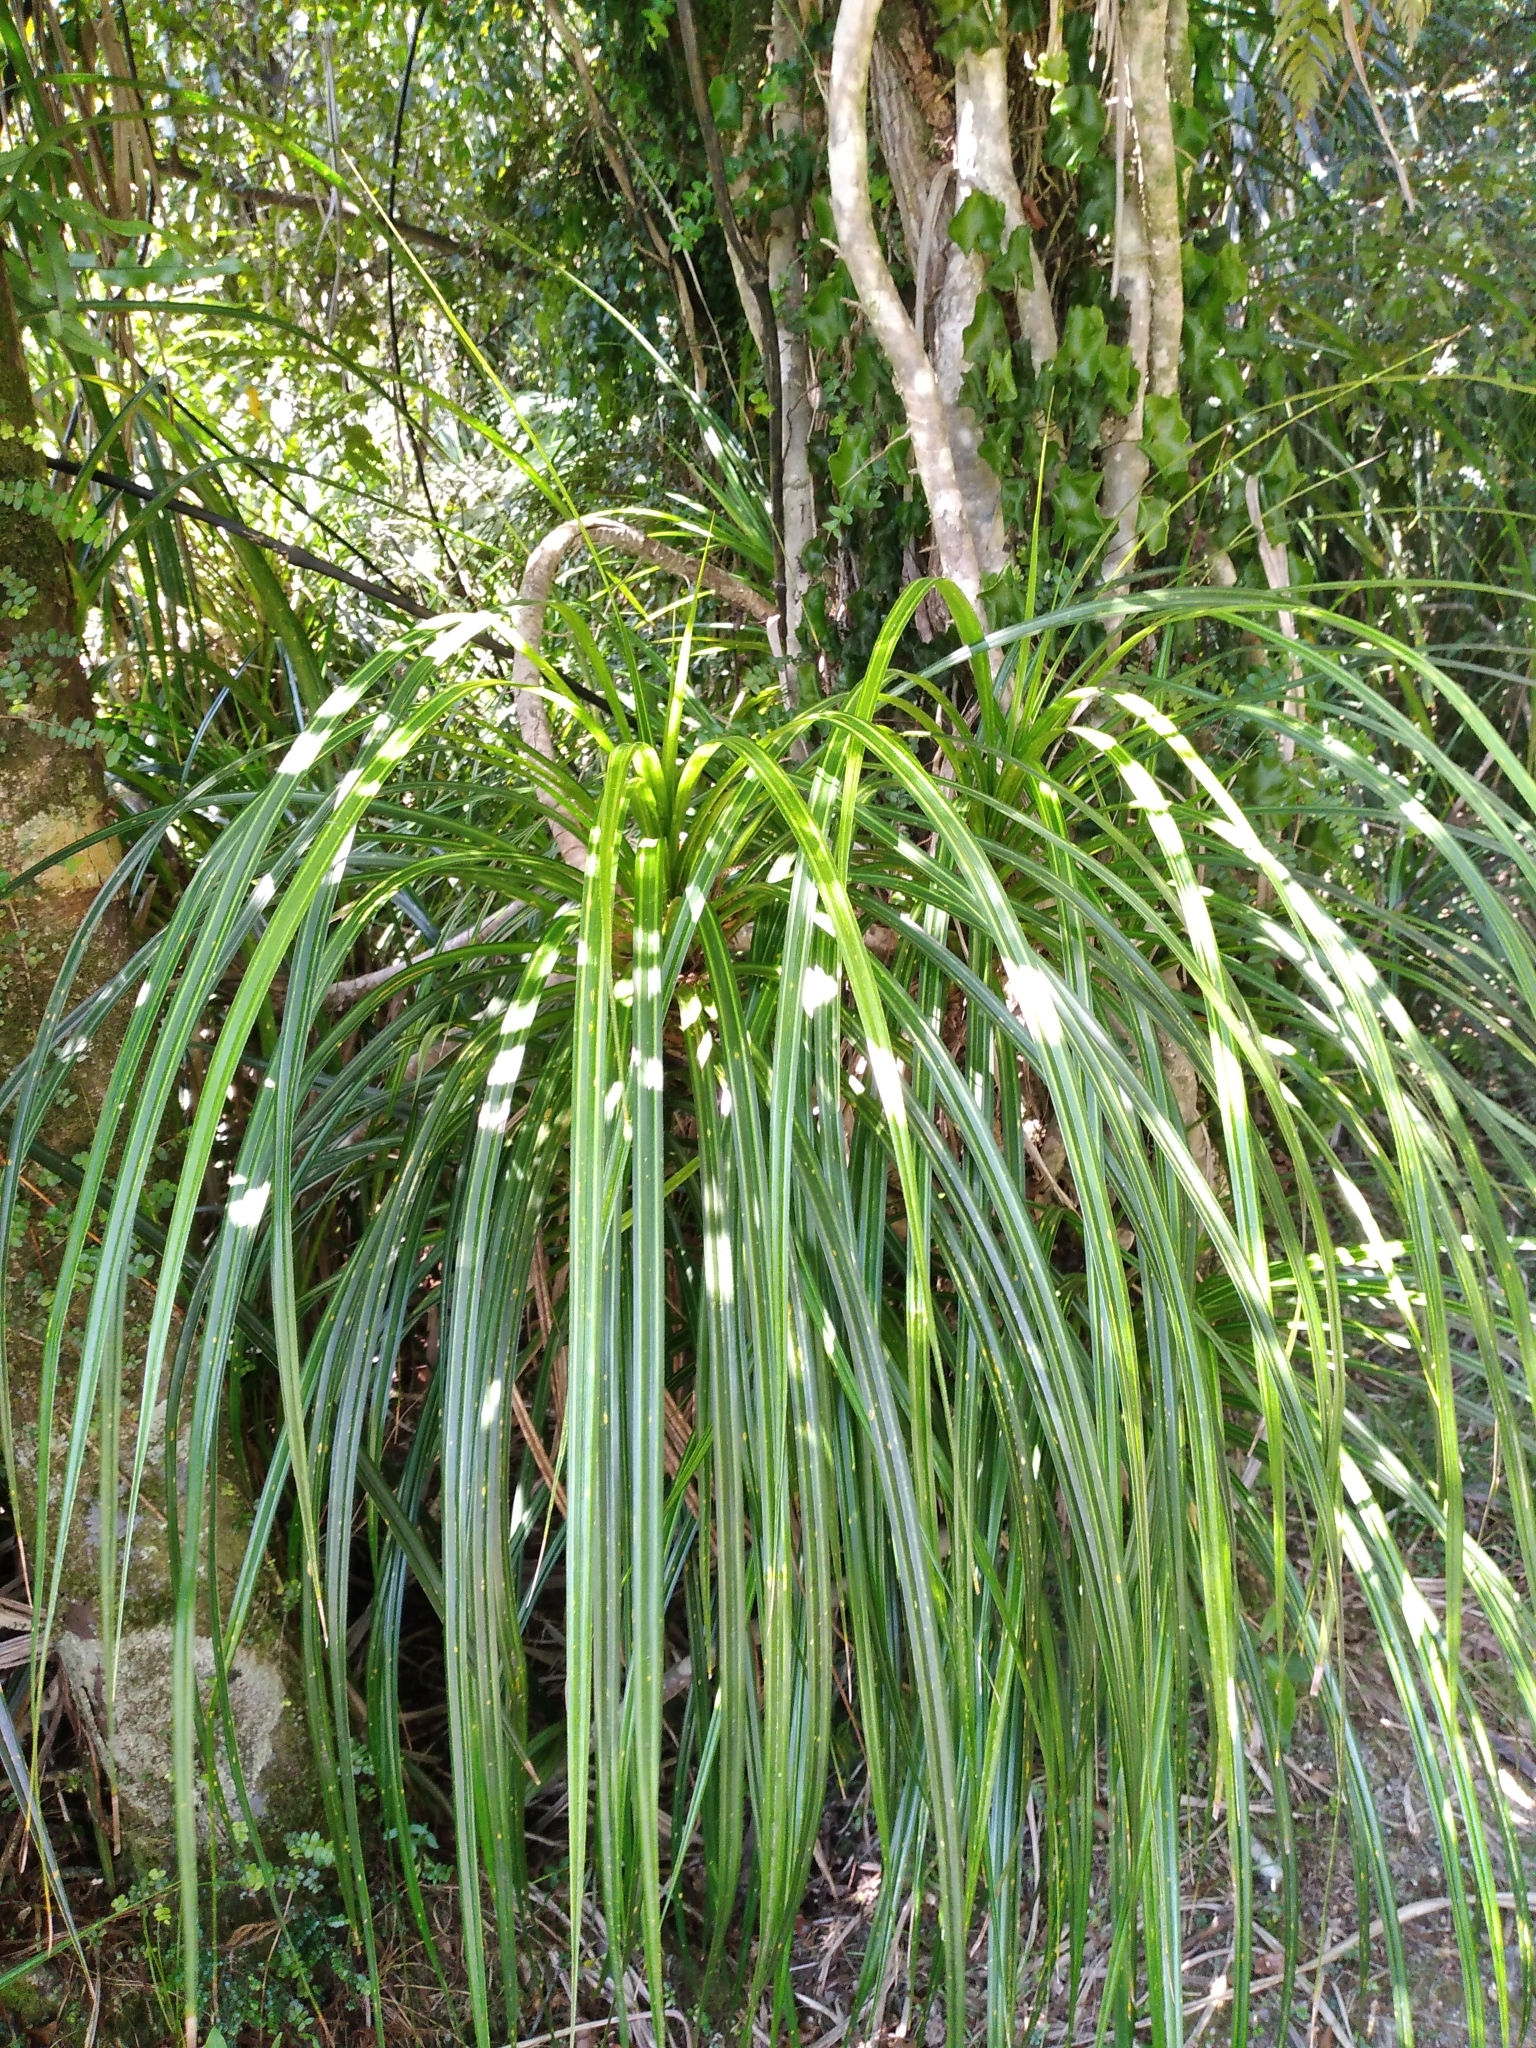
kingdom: Plantae
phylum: Tracheophyta
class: Liliopsida
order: Pandanales
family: Pandanaceae
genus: Freycinetia
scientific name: Freycinetia banksii
